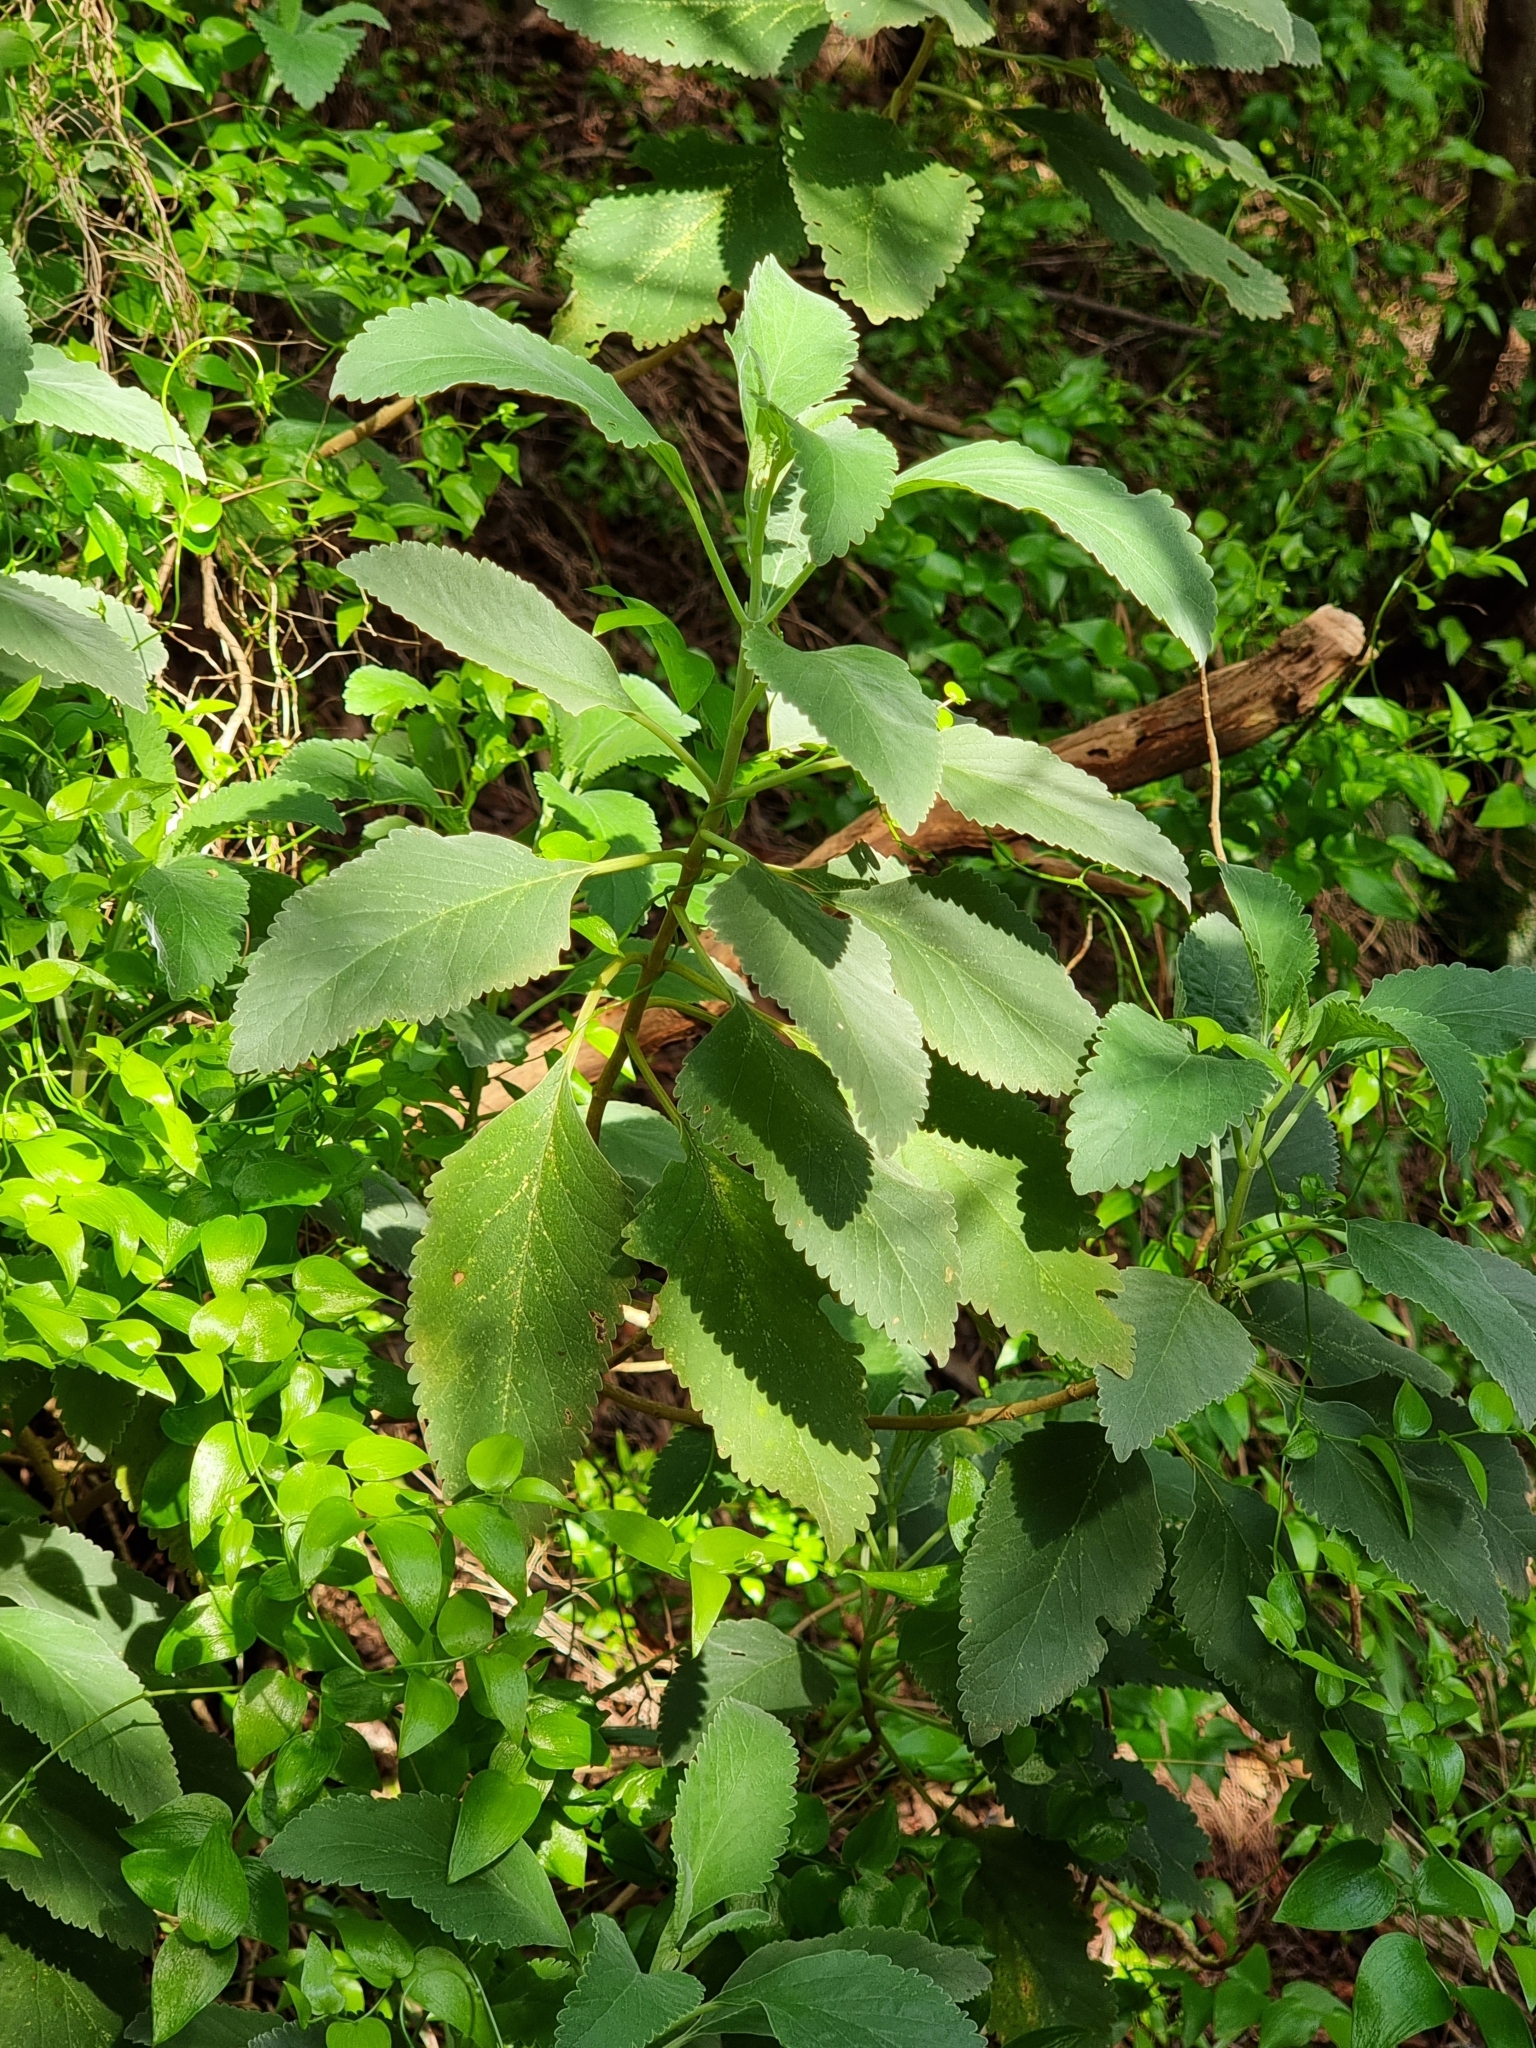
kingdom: Plantae
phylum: Tracheophyta
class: Magnoliopsida
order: Lamiales
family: Lamiaceae
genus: Teucrium
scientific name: Teucrium betonicum
